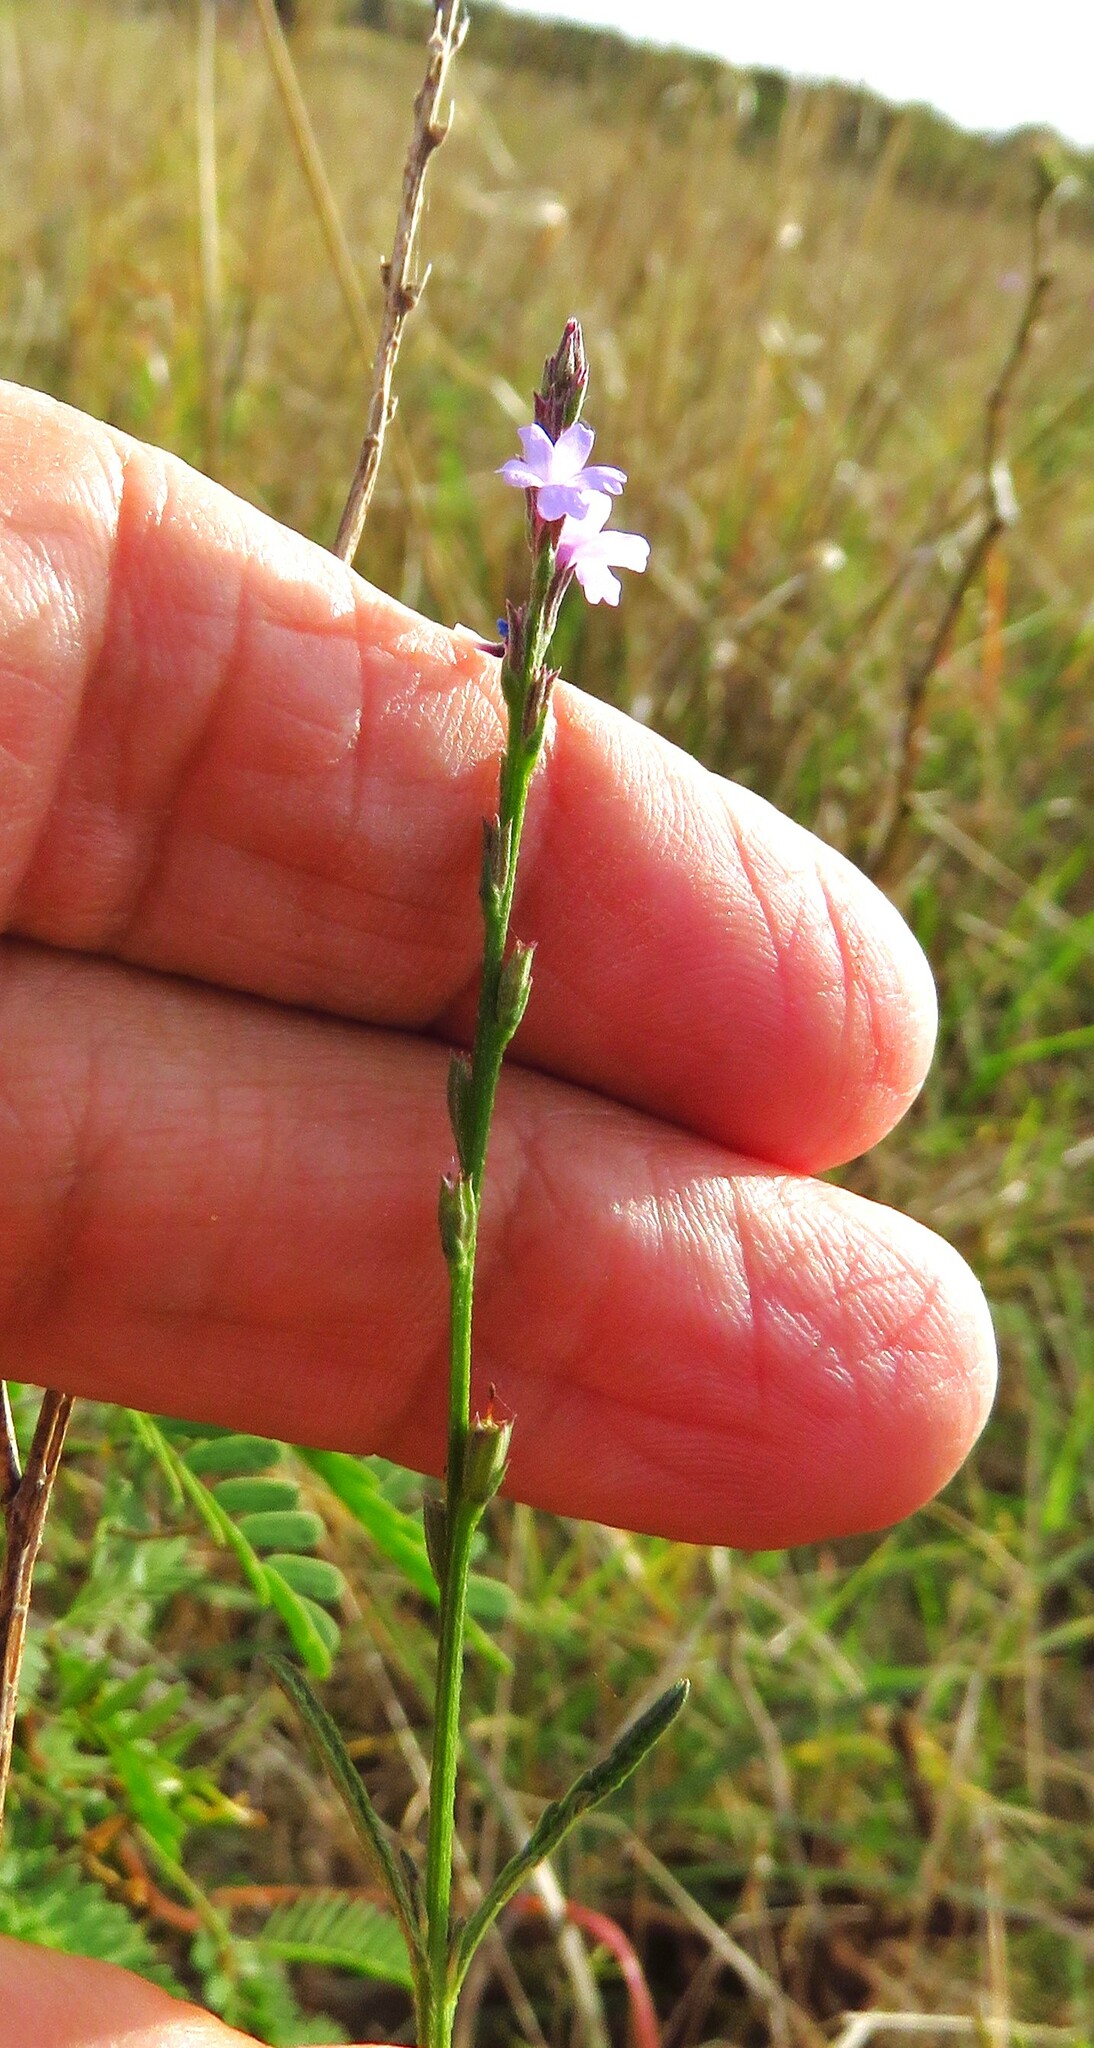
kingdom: Plantae
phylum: Tracheophyta
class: Magnoliopsida
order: Lamiales
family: Verbenaceae
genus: Verbena
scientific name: Verbena halei
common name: Texas vervain
